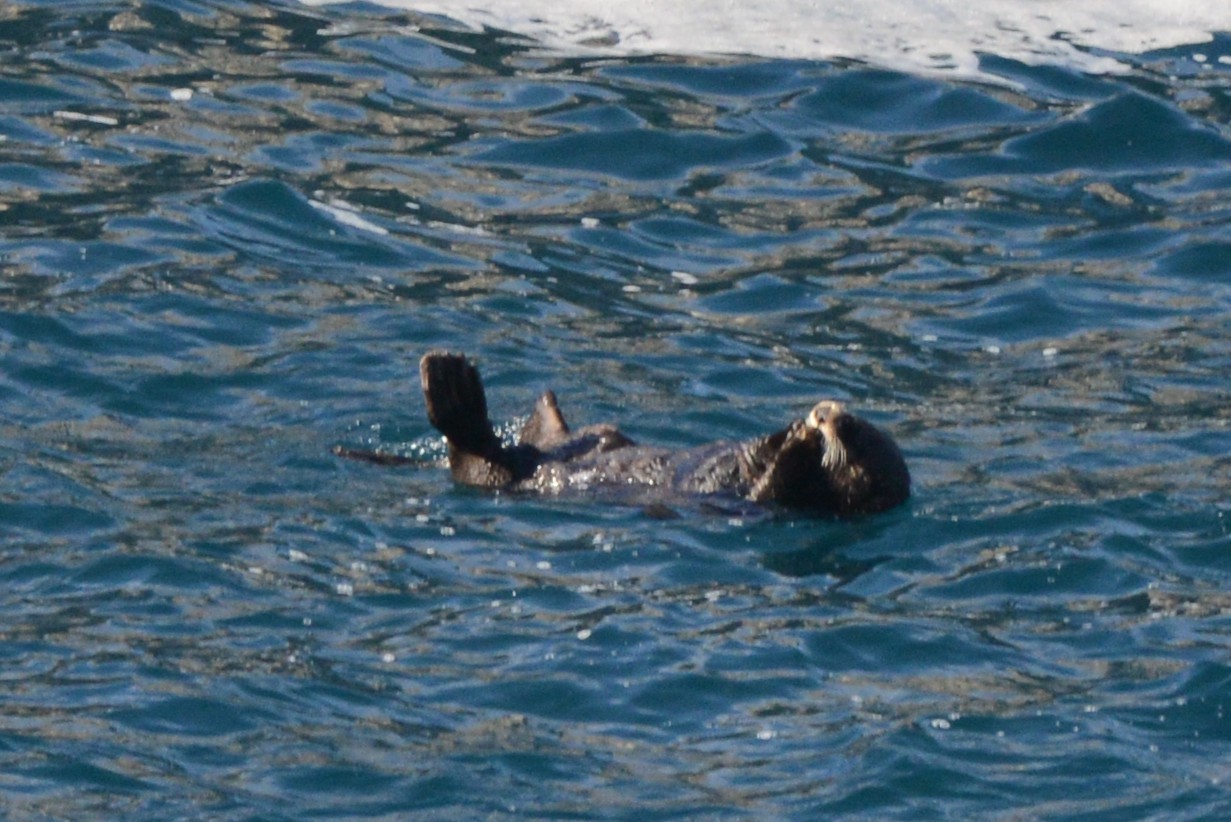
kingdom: Animalia
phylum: Chordata
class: Mammalia
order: Carnivora
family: Mustelidae
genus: Enhydra
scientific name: Enhydra lutris
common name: Sea otter
